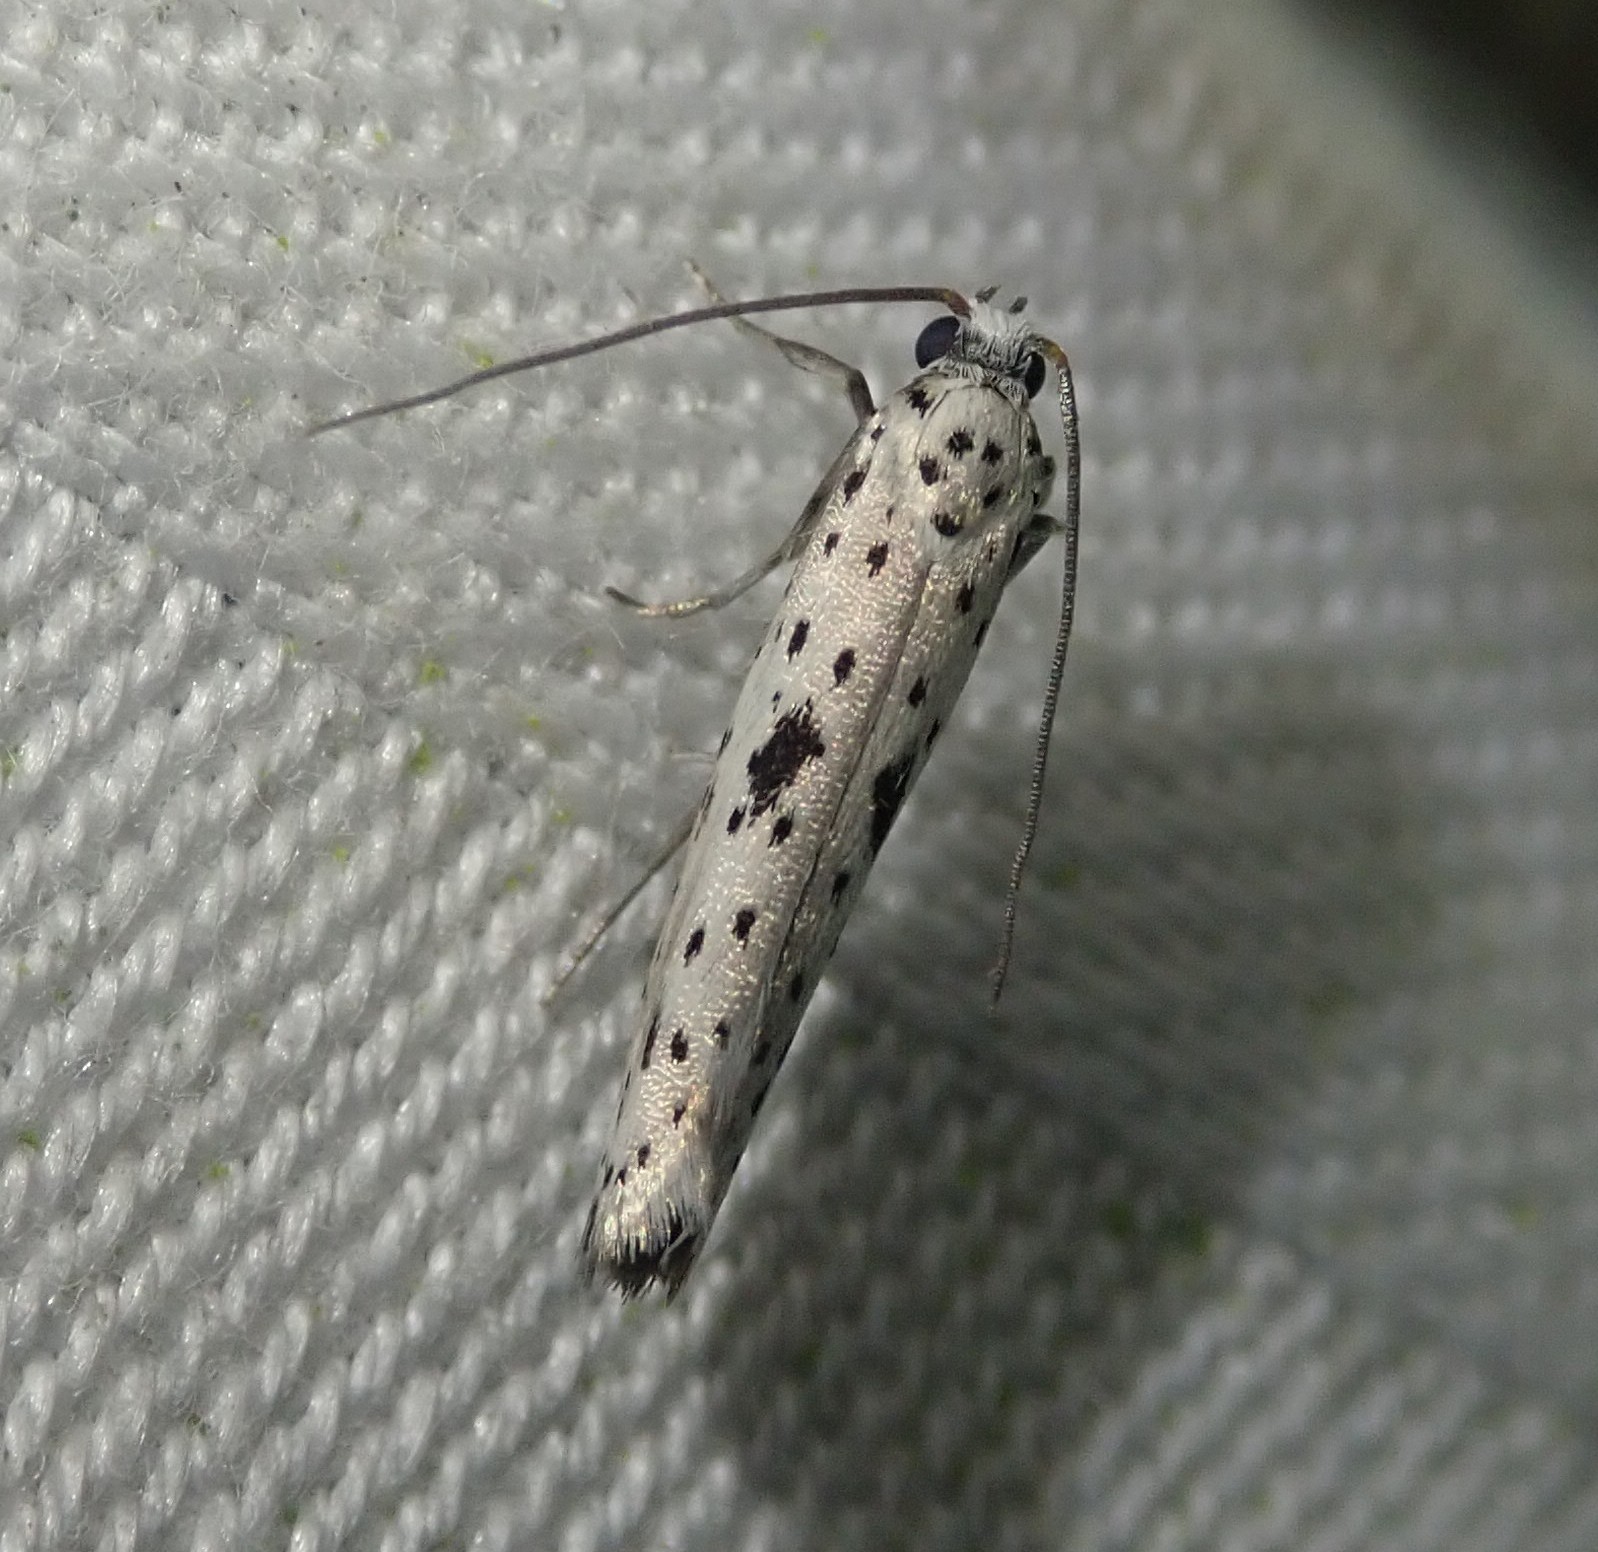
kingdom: Animalia
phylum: Arthropoda
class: Insecta
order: Lepidoptera
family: Yponomeutidae
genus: Yponomeuta
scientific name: Yponomeuta plumbella
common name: Black-tipped ermine
